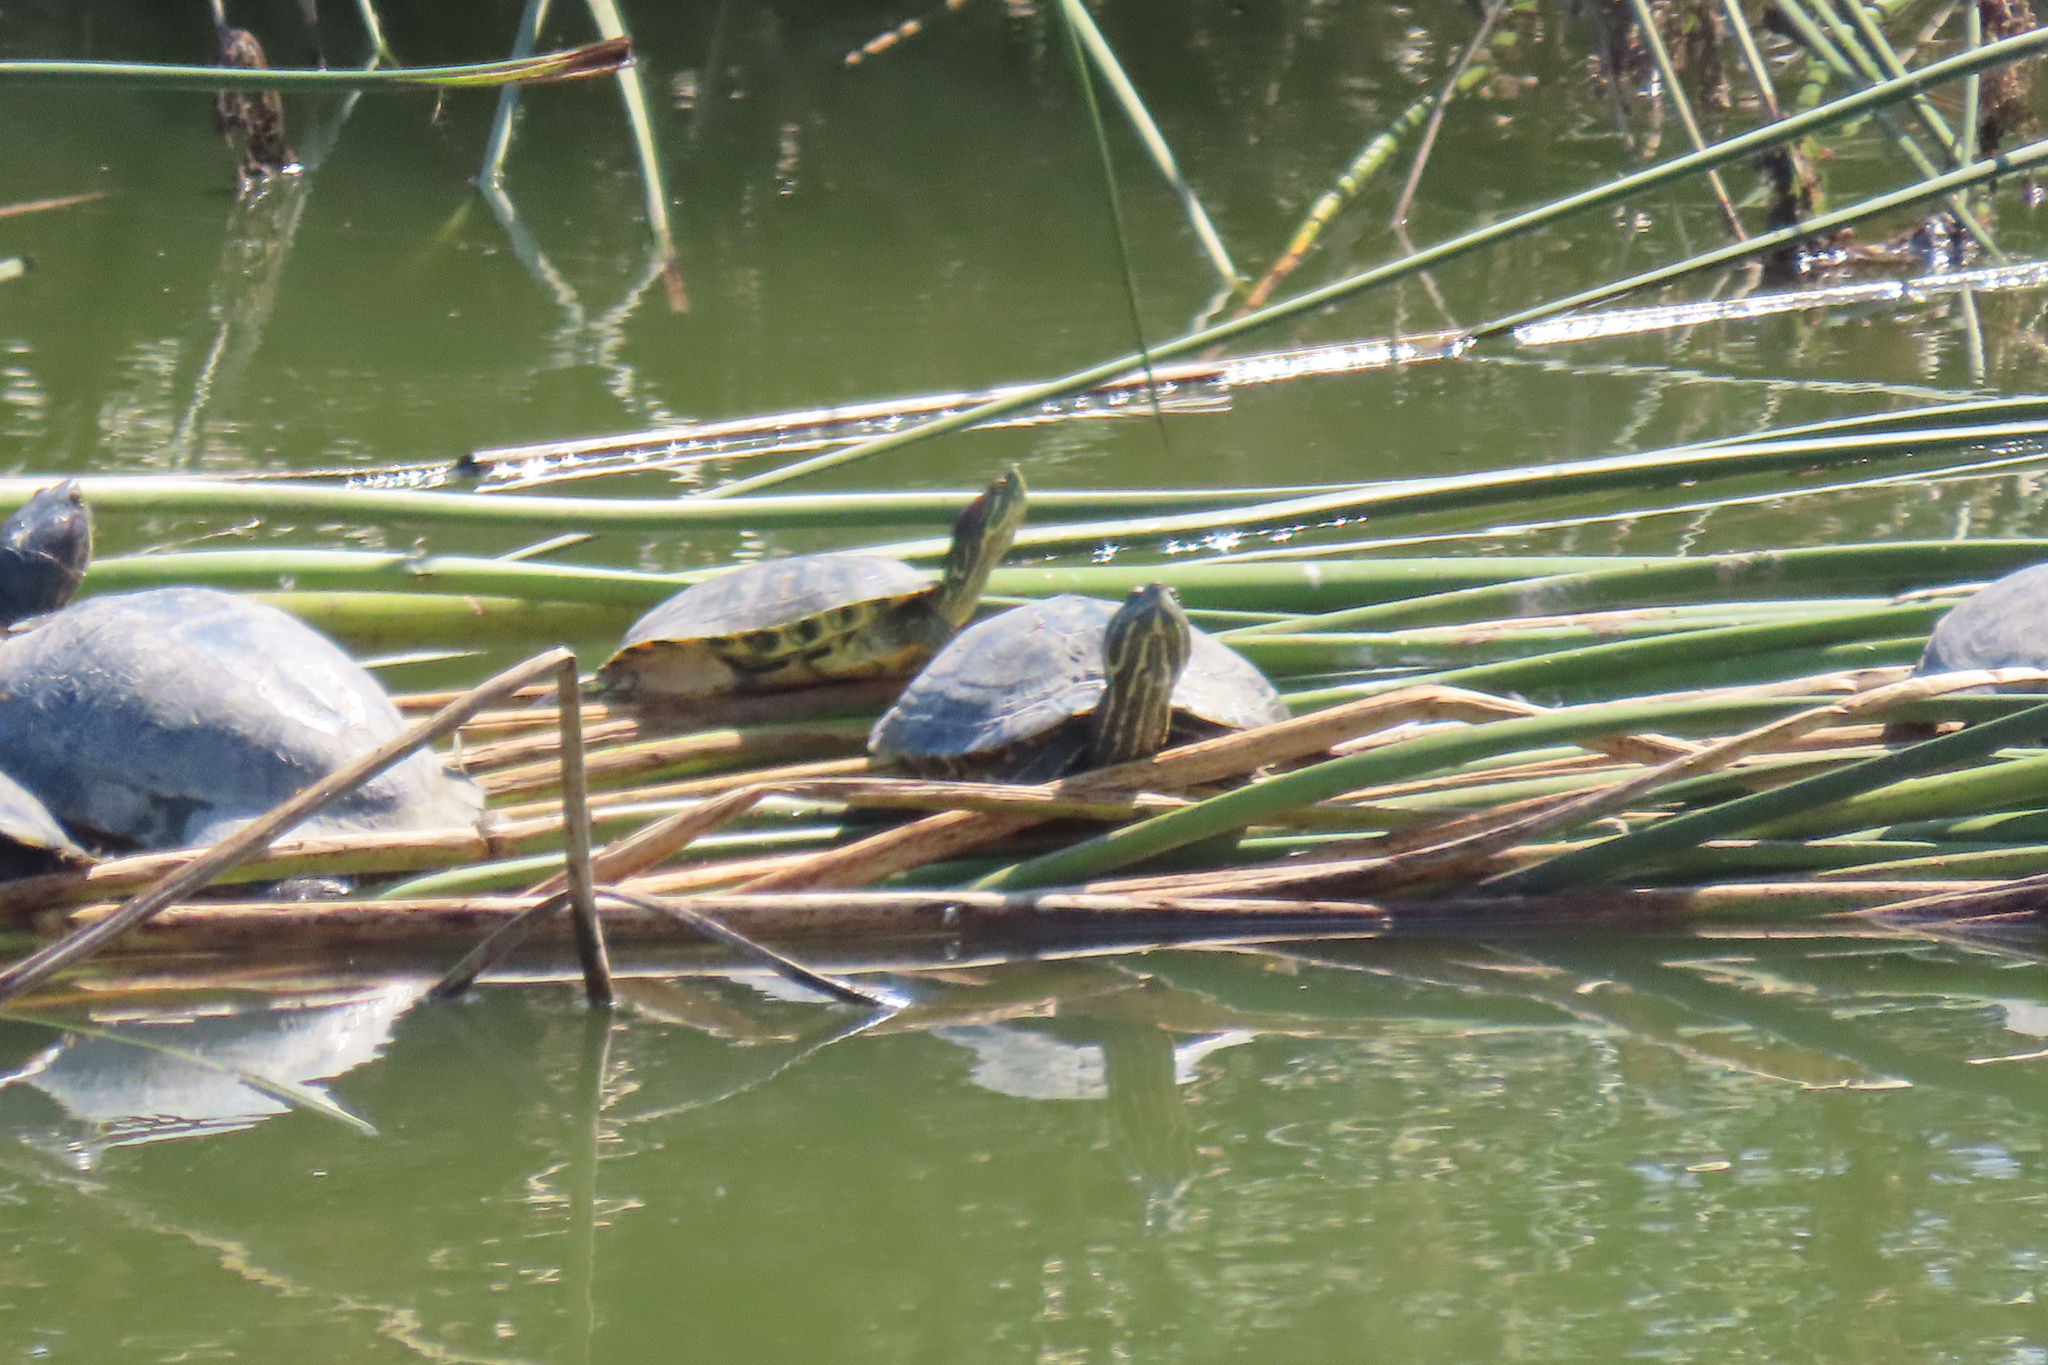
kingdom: Animalia
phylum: Chordata
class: Testudines
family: Emydidae
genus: Trachemys
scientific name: Trachemys scripta
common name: Slider
